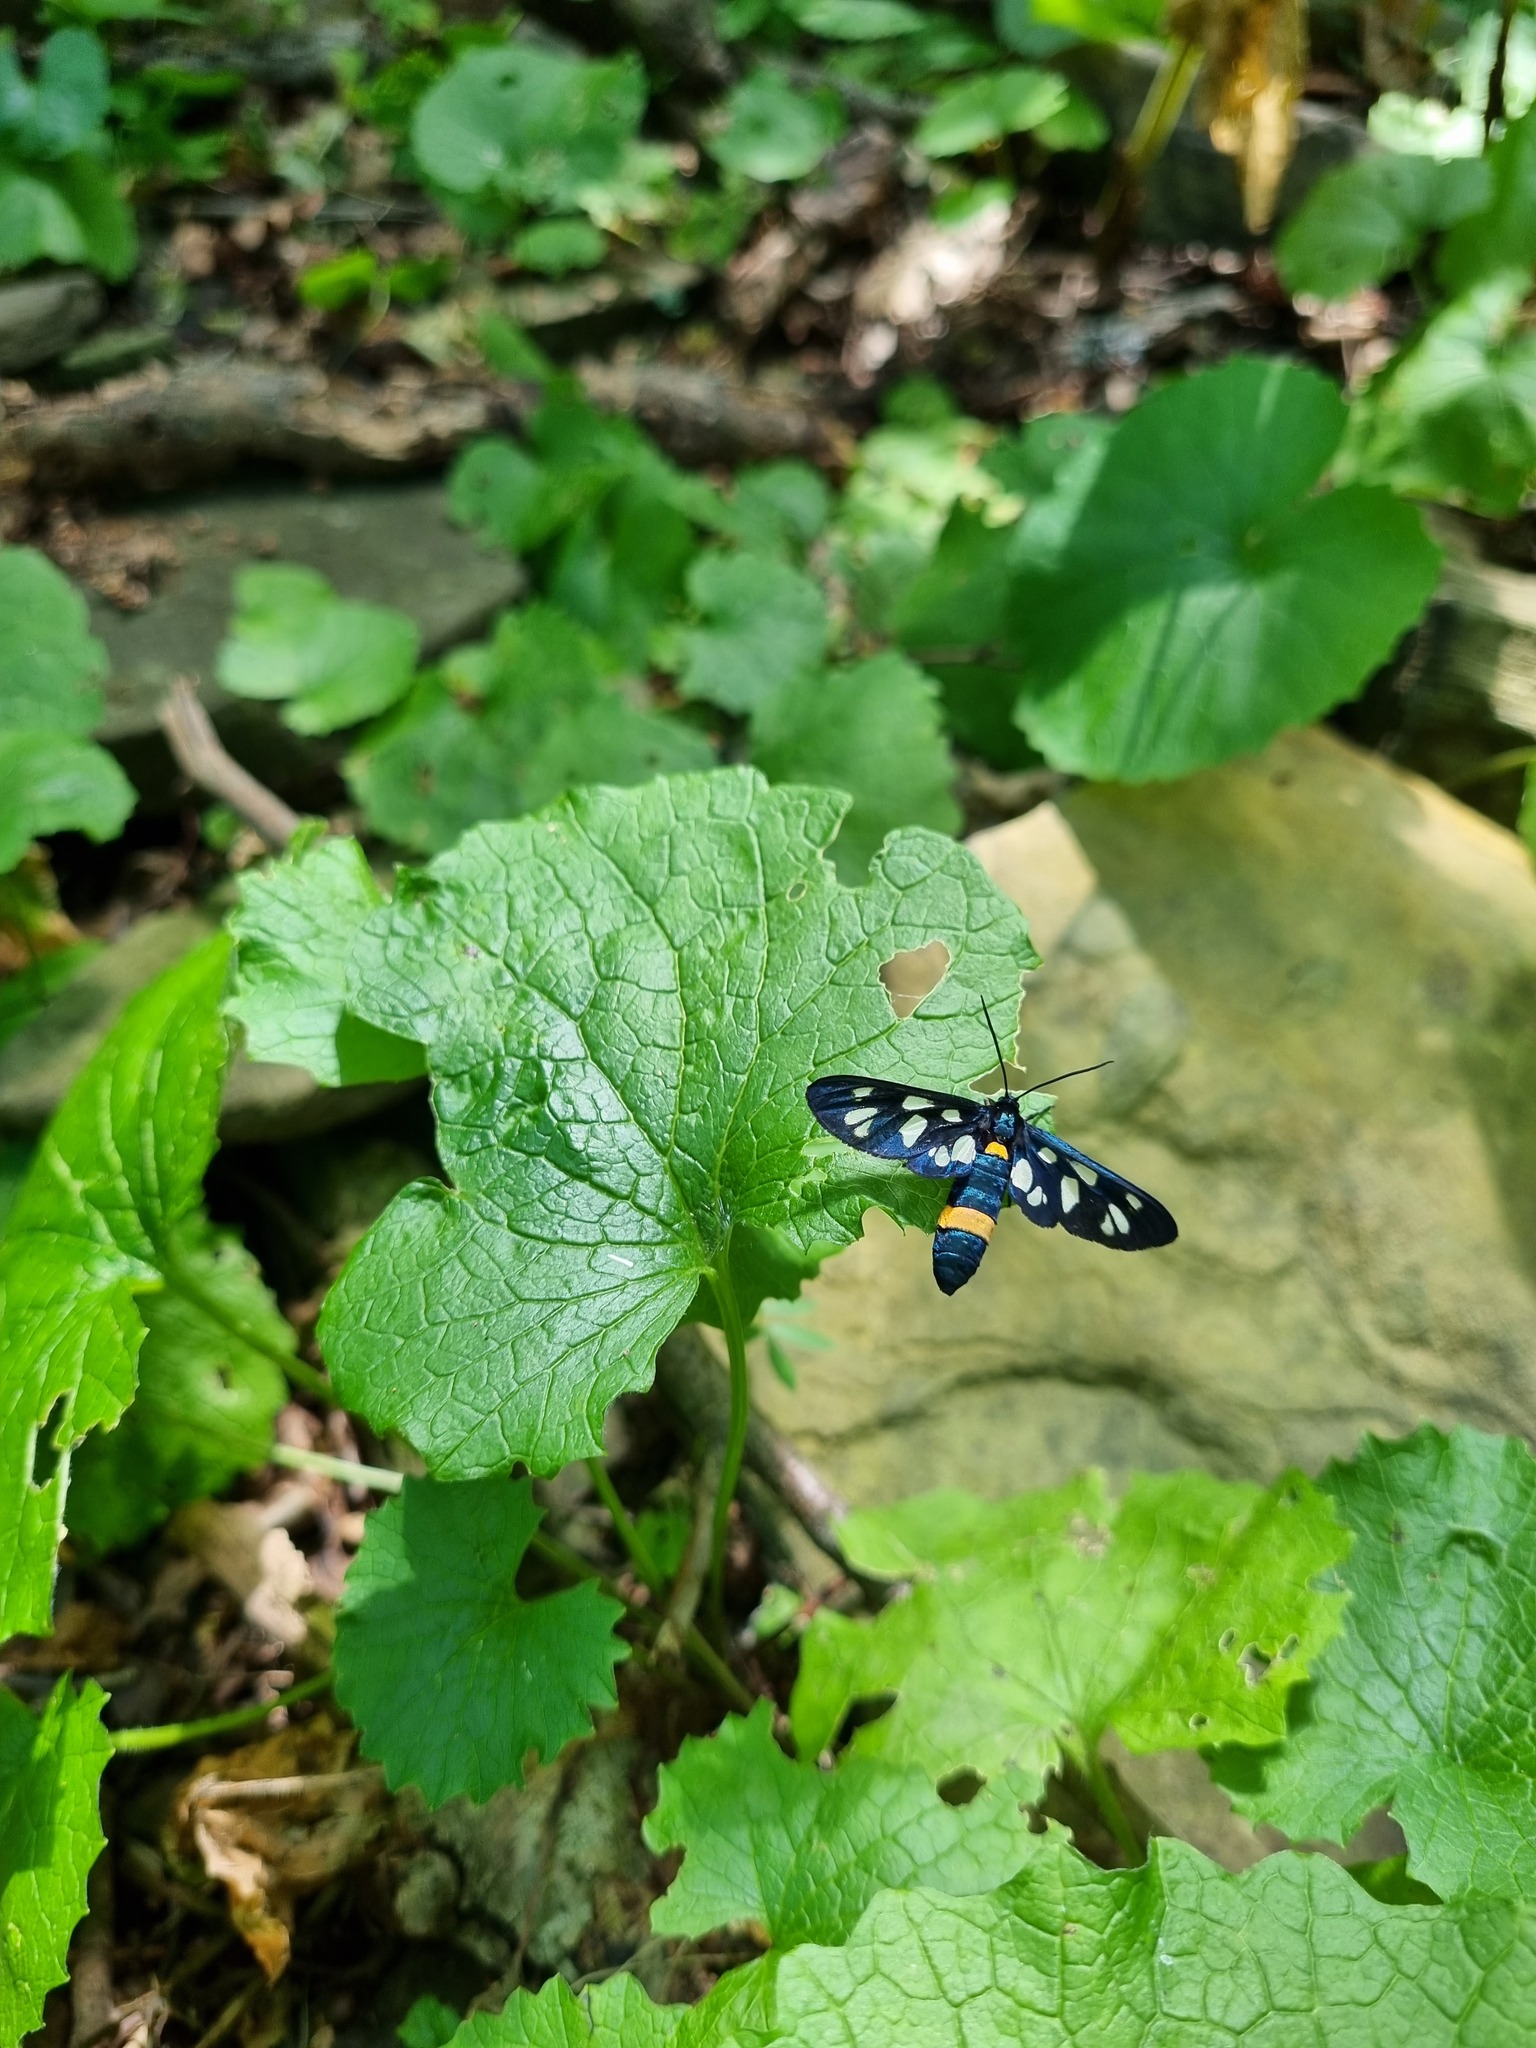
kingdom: Plantae
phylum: Tracheophyta
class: Magnoliopsida
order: Brassicales
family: Brassicaceae
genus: Alliaria
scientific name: Alliaria petiolata
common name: Garlic mustard
